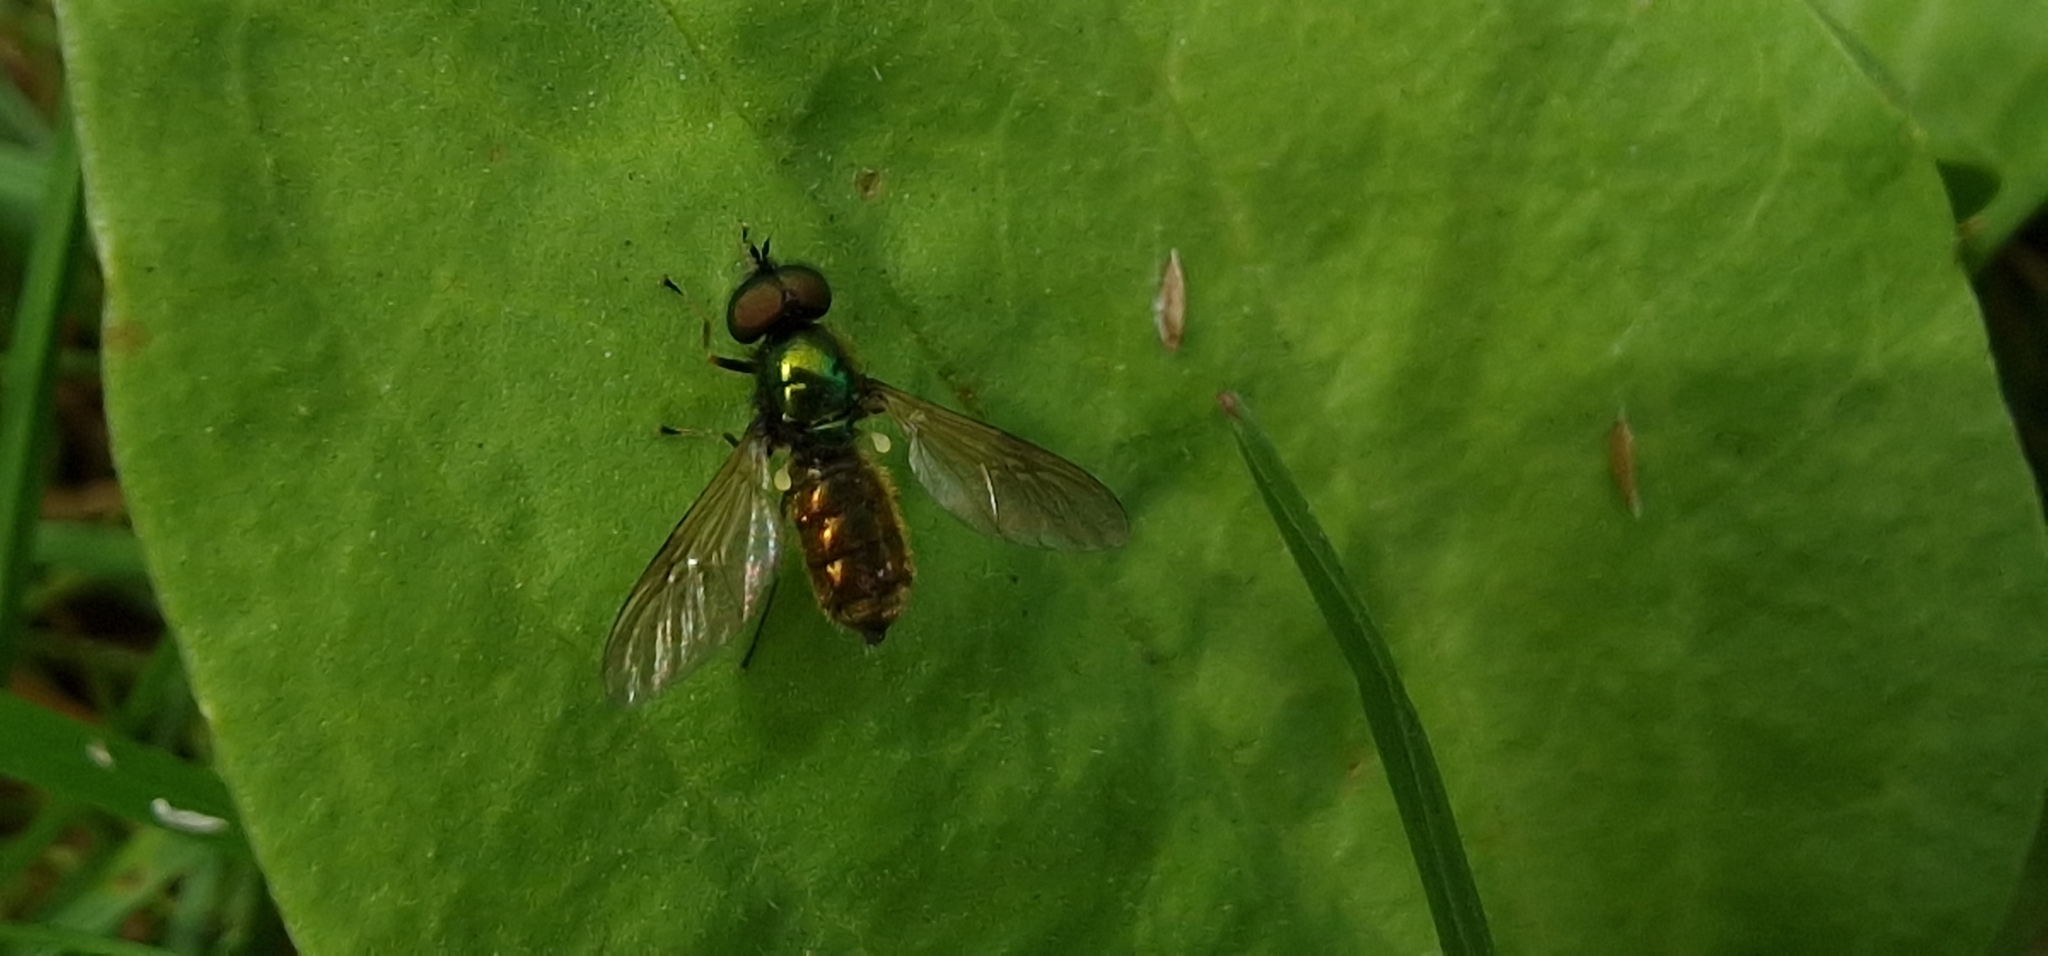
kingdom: Animalia
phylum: Arthropoda
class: Insecta
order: Diptera
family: Stratiomyidae
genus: Chloromyia
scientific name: Chloromyia formosa
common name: Soldier fly
